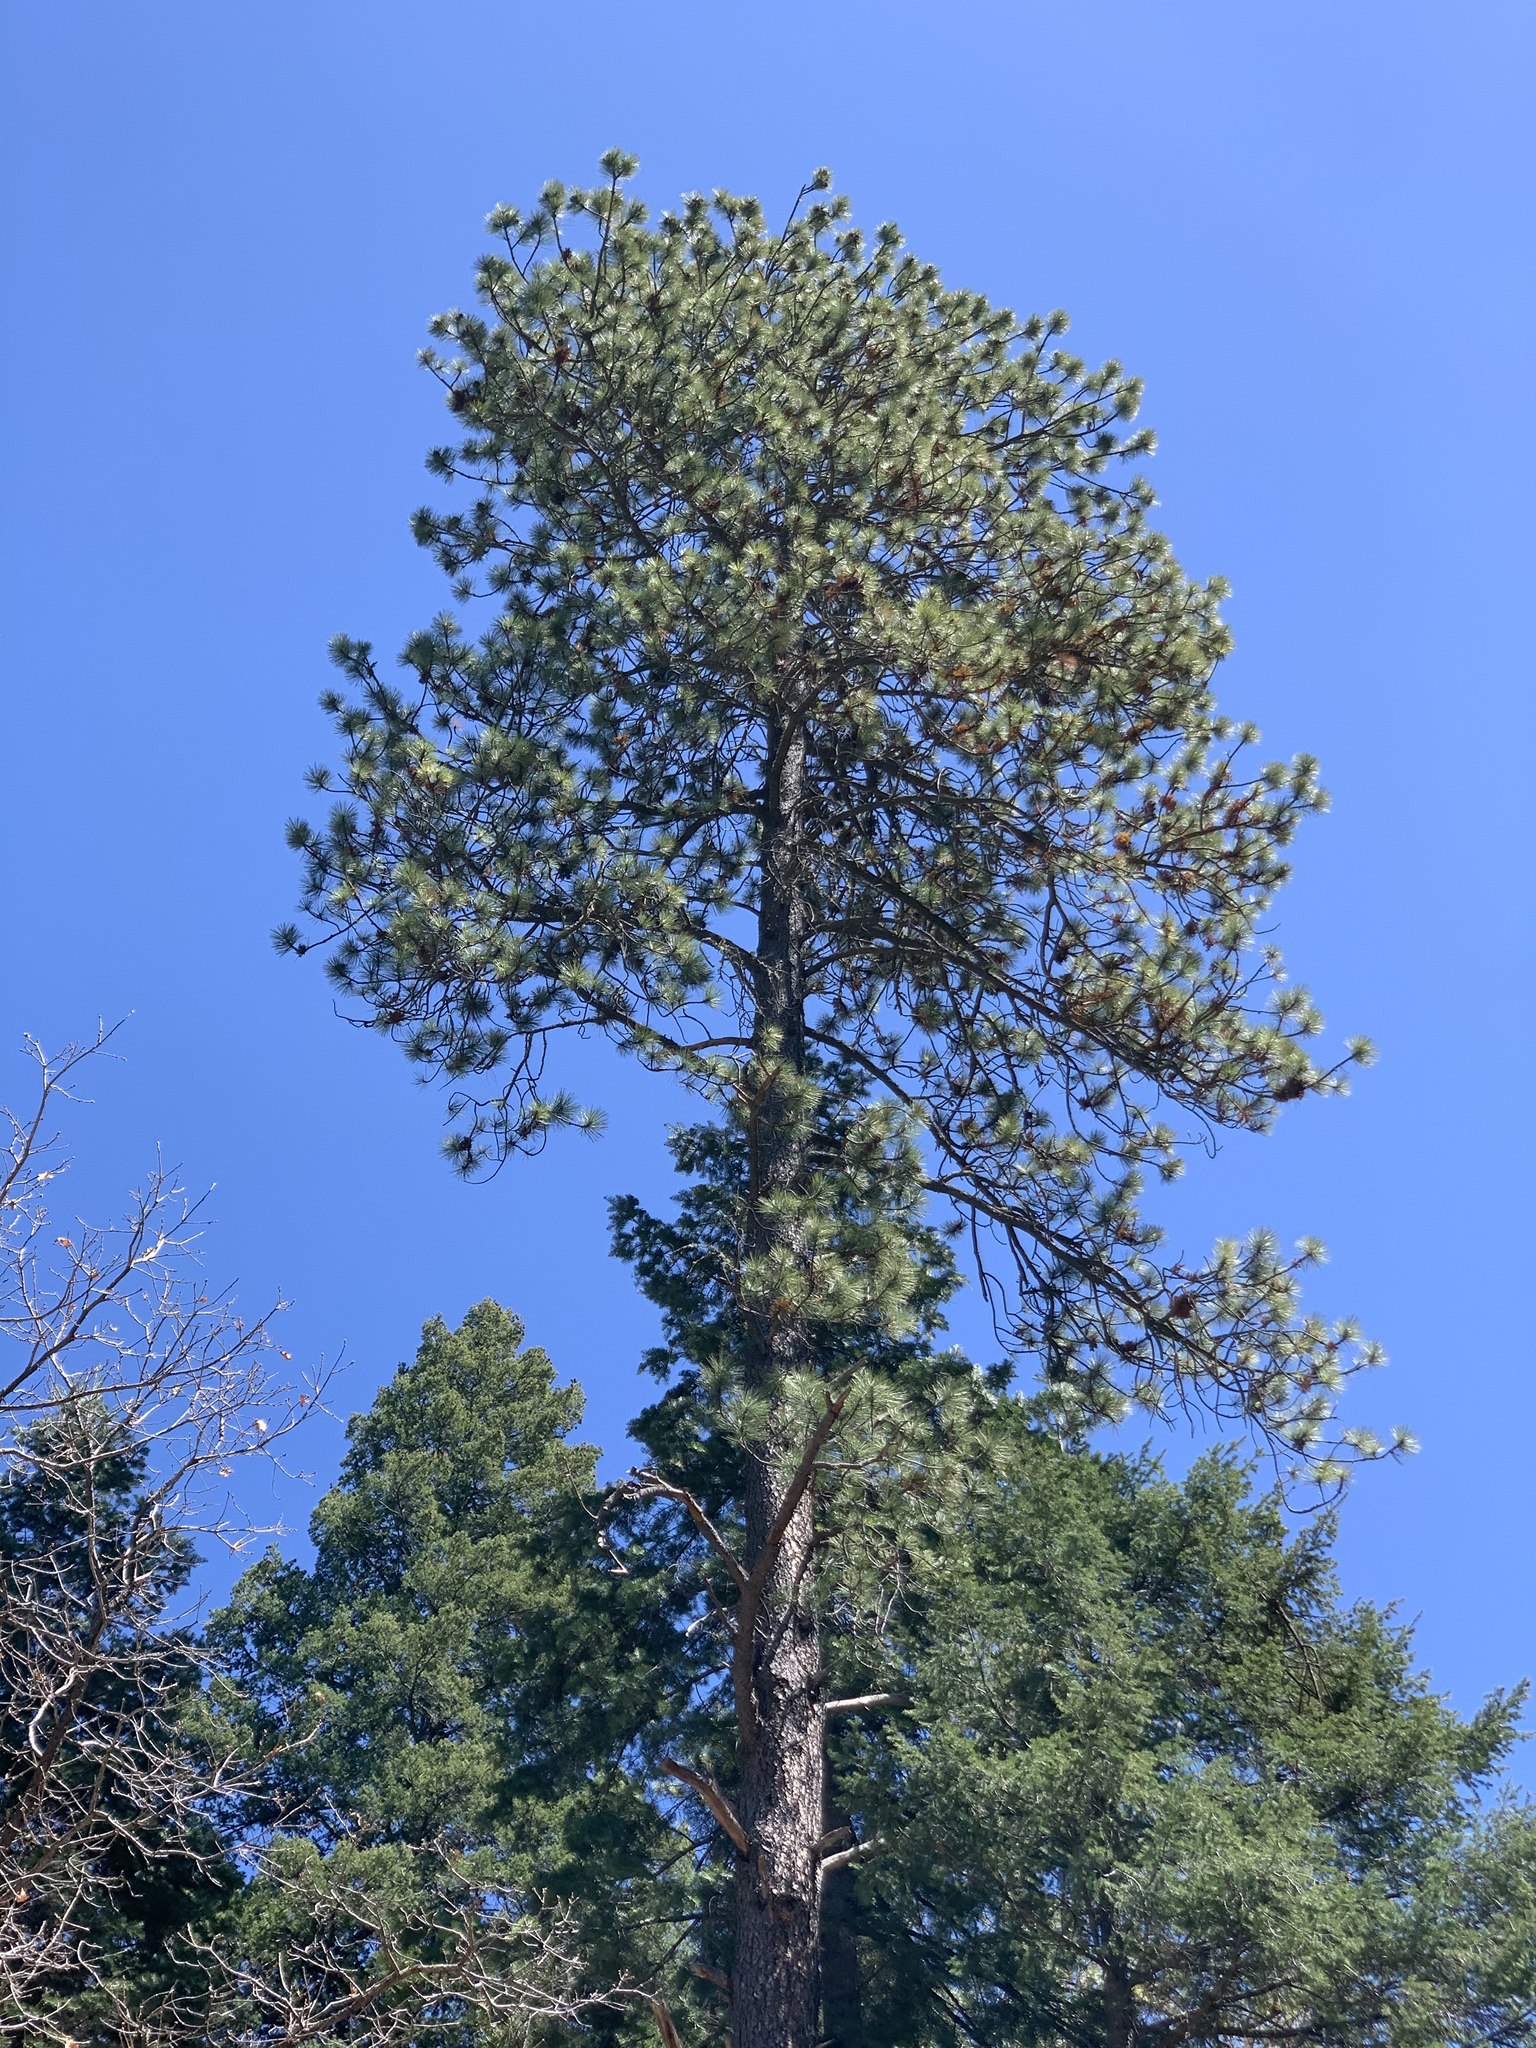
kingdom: Plantae
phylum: Tracheophyta
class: Pinopsida
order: Pinales
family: Pinaceae
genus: Pinus
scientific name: Pinus ponderosa
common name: Western yellow-pine
